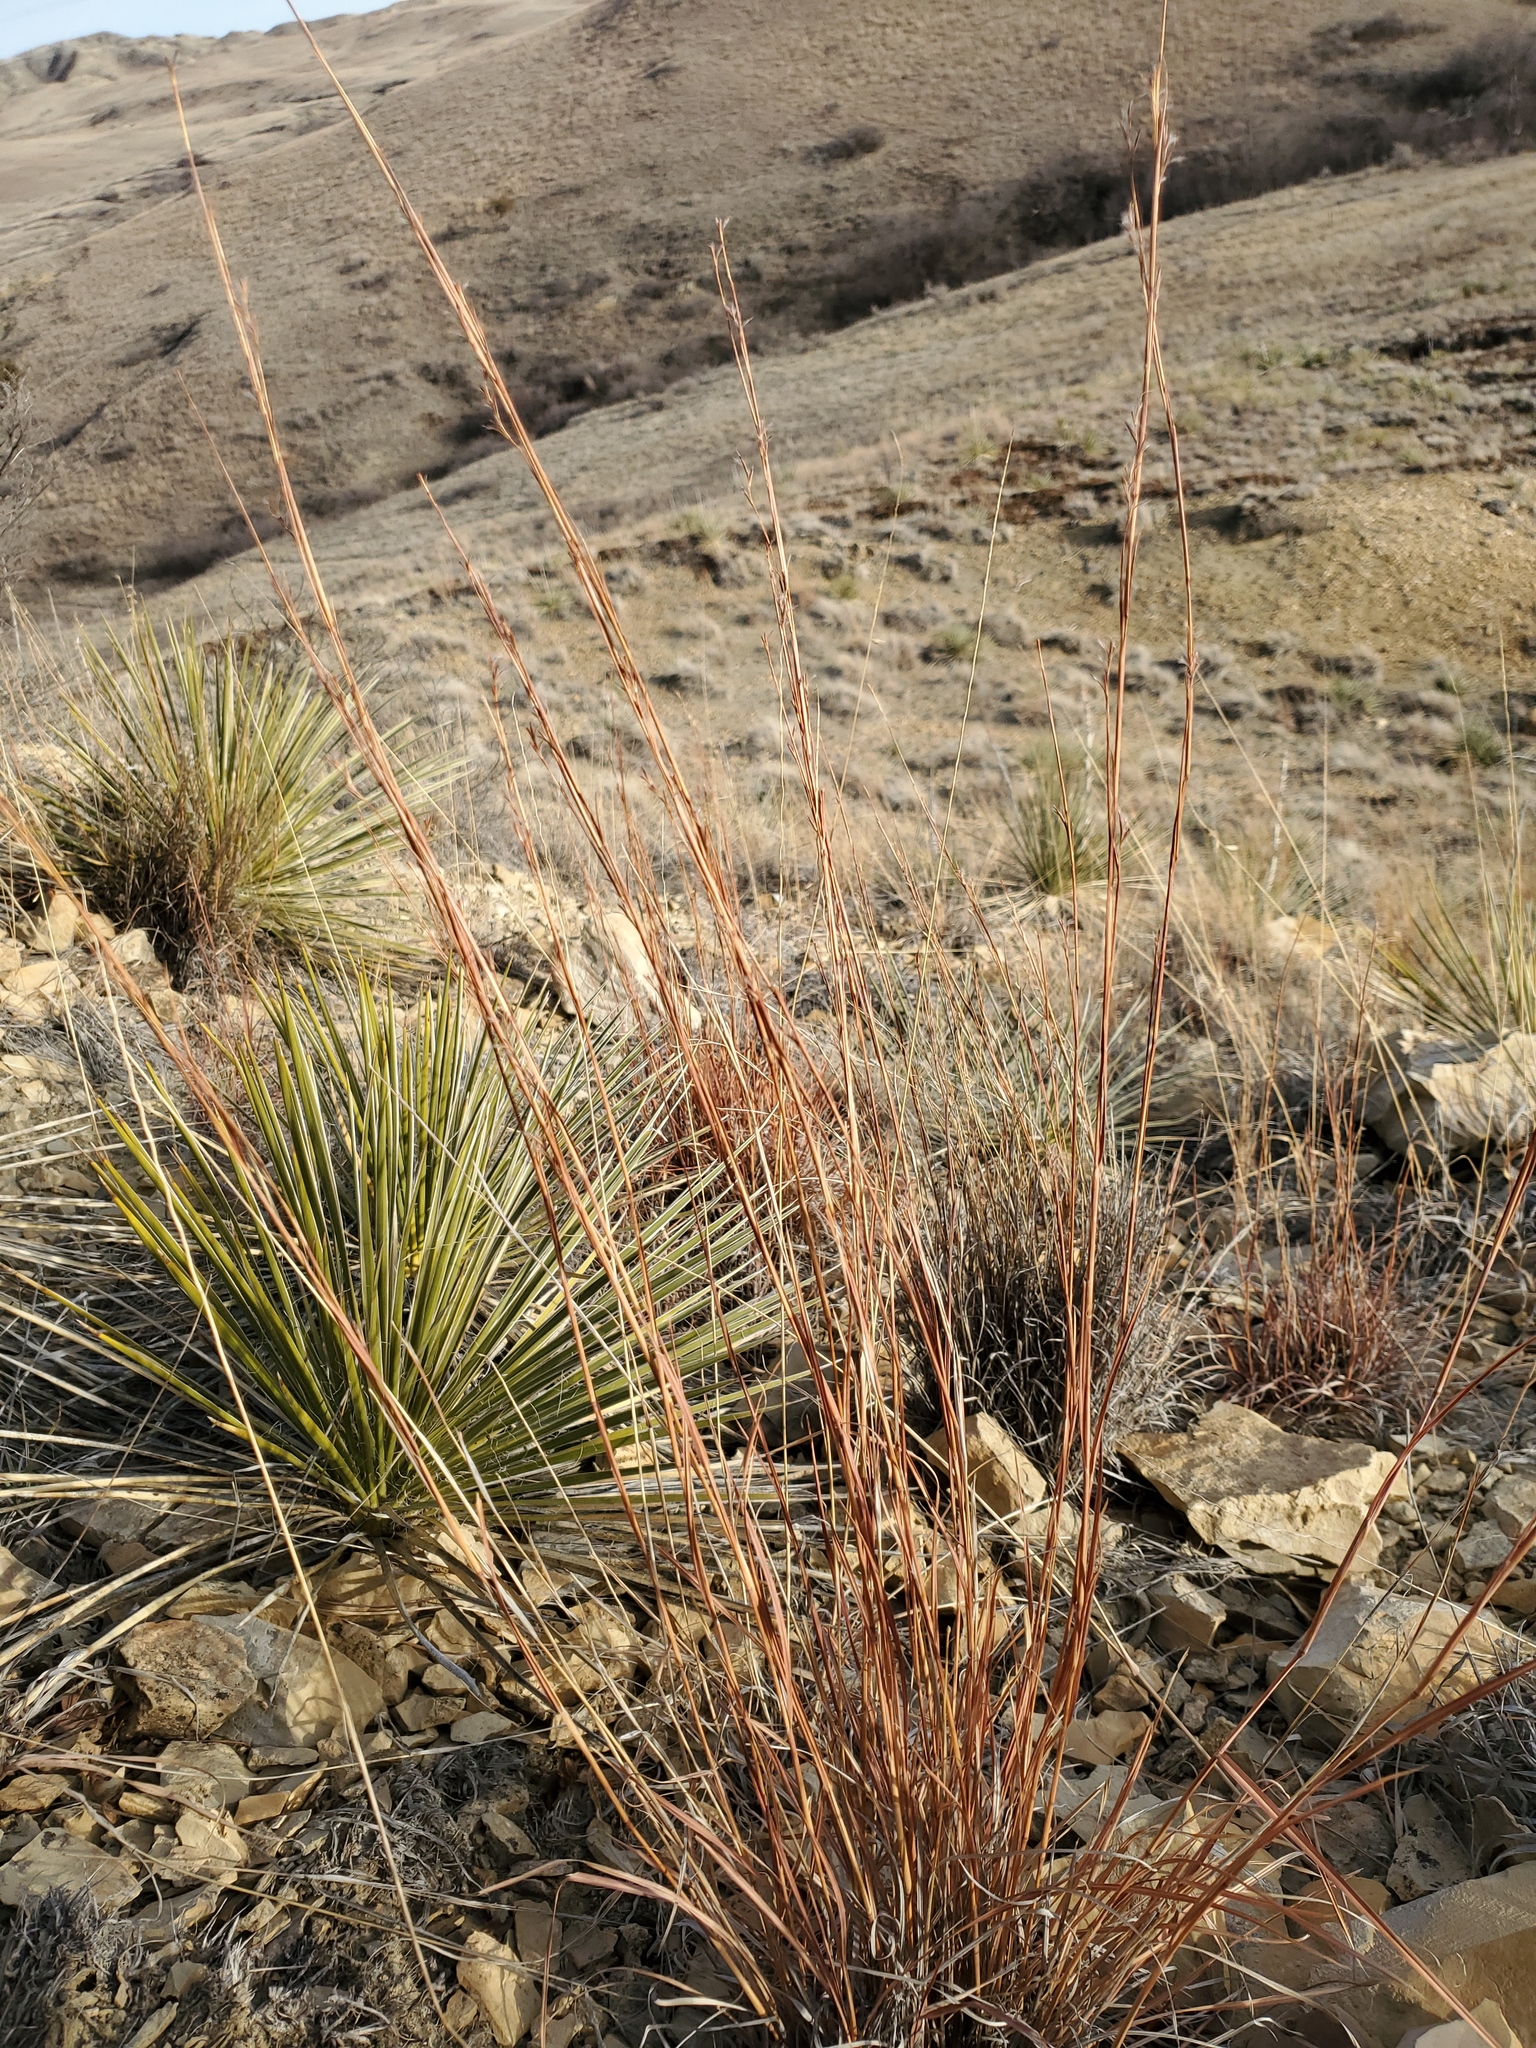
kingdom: Plantae
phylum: Tracheophyta
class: Liliopsida
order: Poales
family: Poaceae
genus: Schizachyrium
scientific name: Schizachyrium scoparium
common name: Little bluestem
